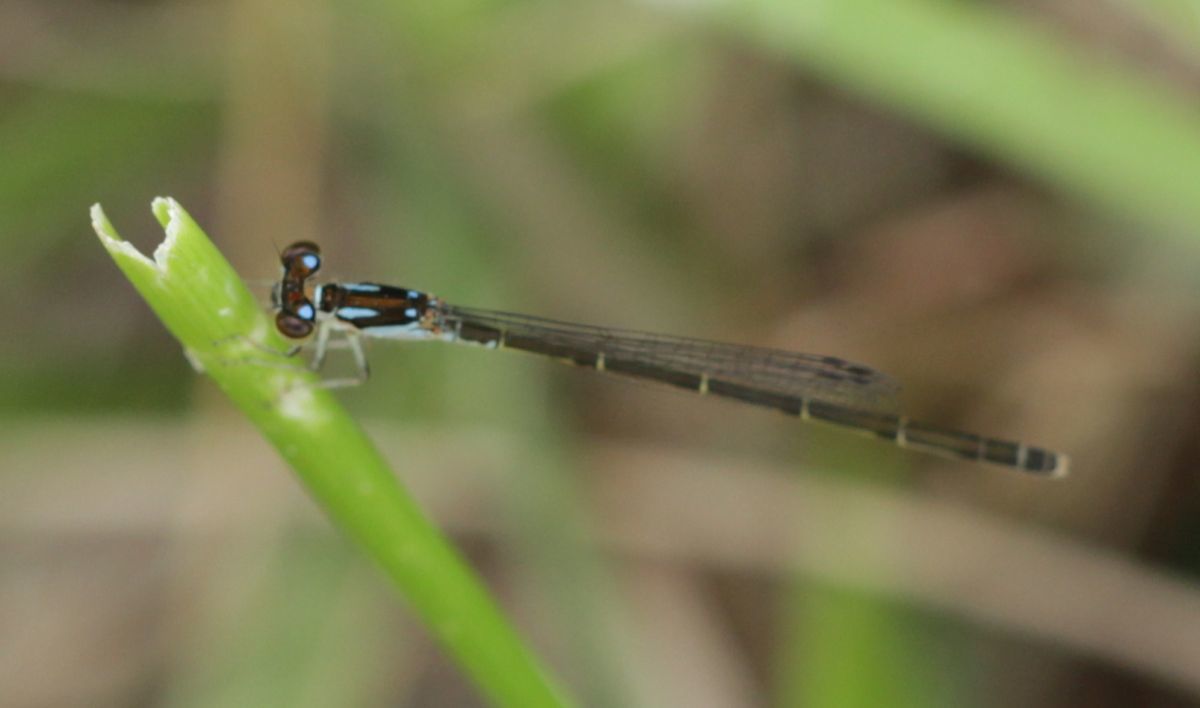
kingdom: Animalia
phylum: Arthropoda
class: Insecta
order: Odonata
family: Coenagrionidae
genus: Ischnura
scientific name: Ischnura posita
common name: Fragile forktail
